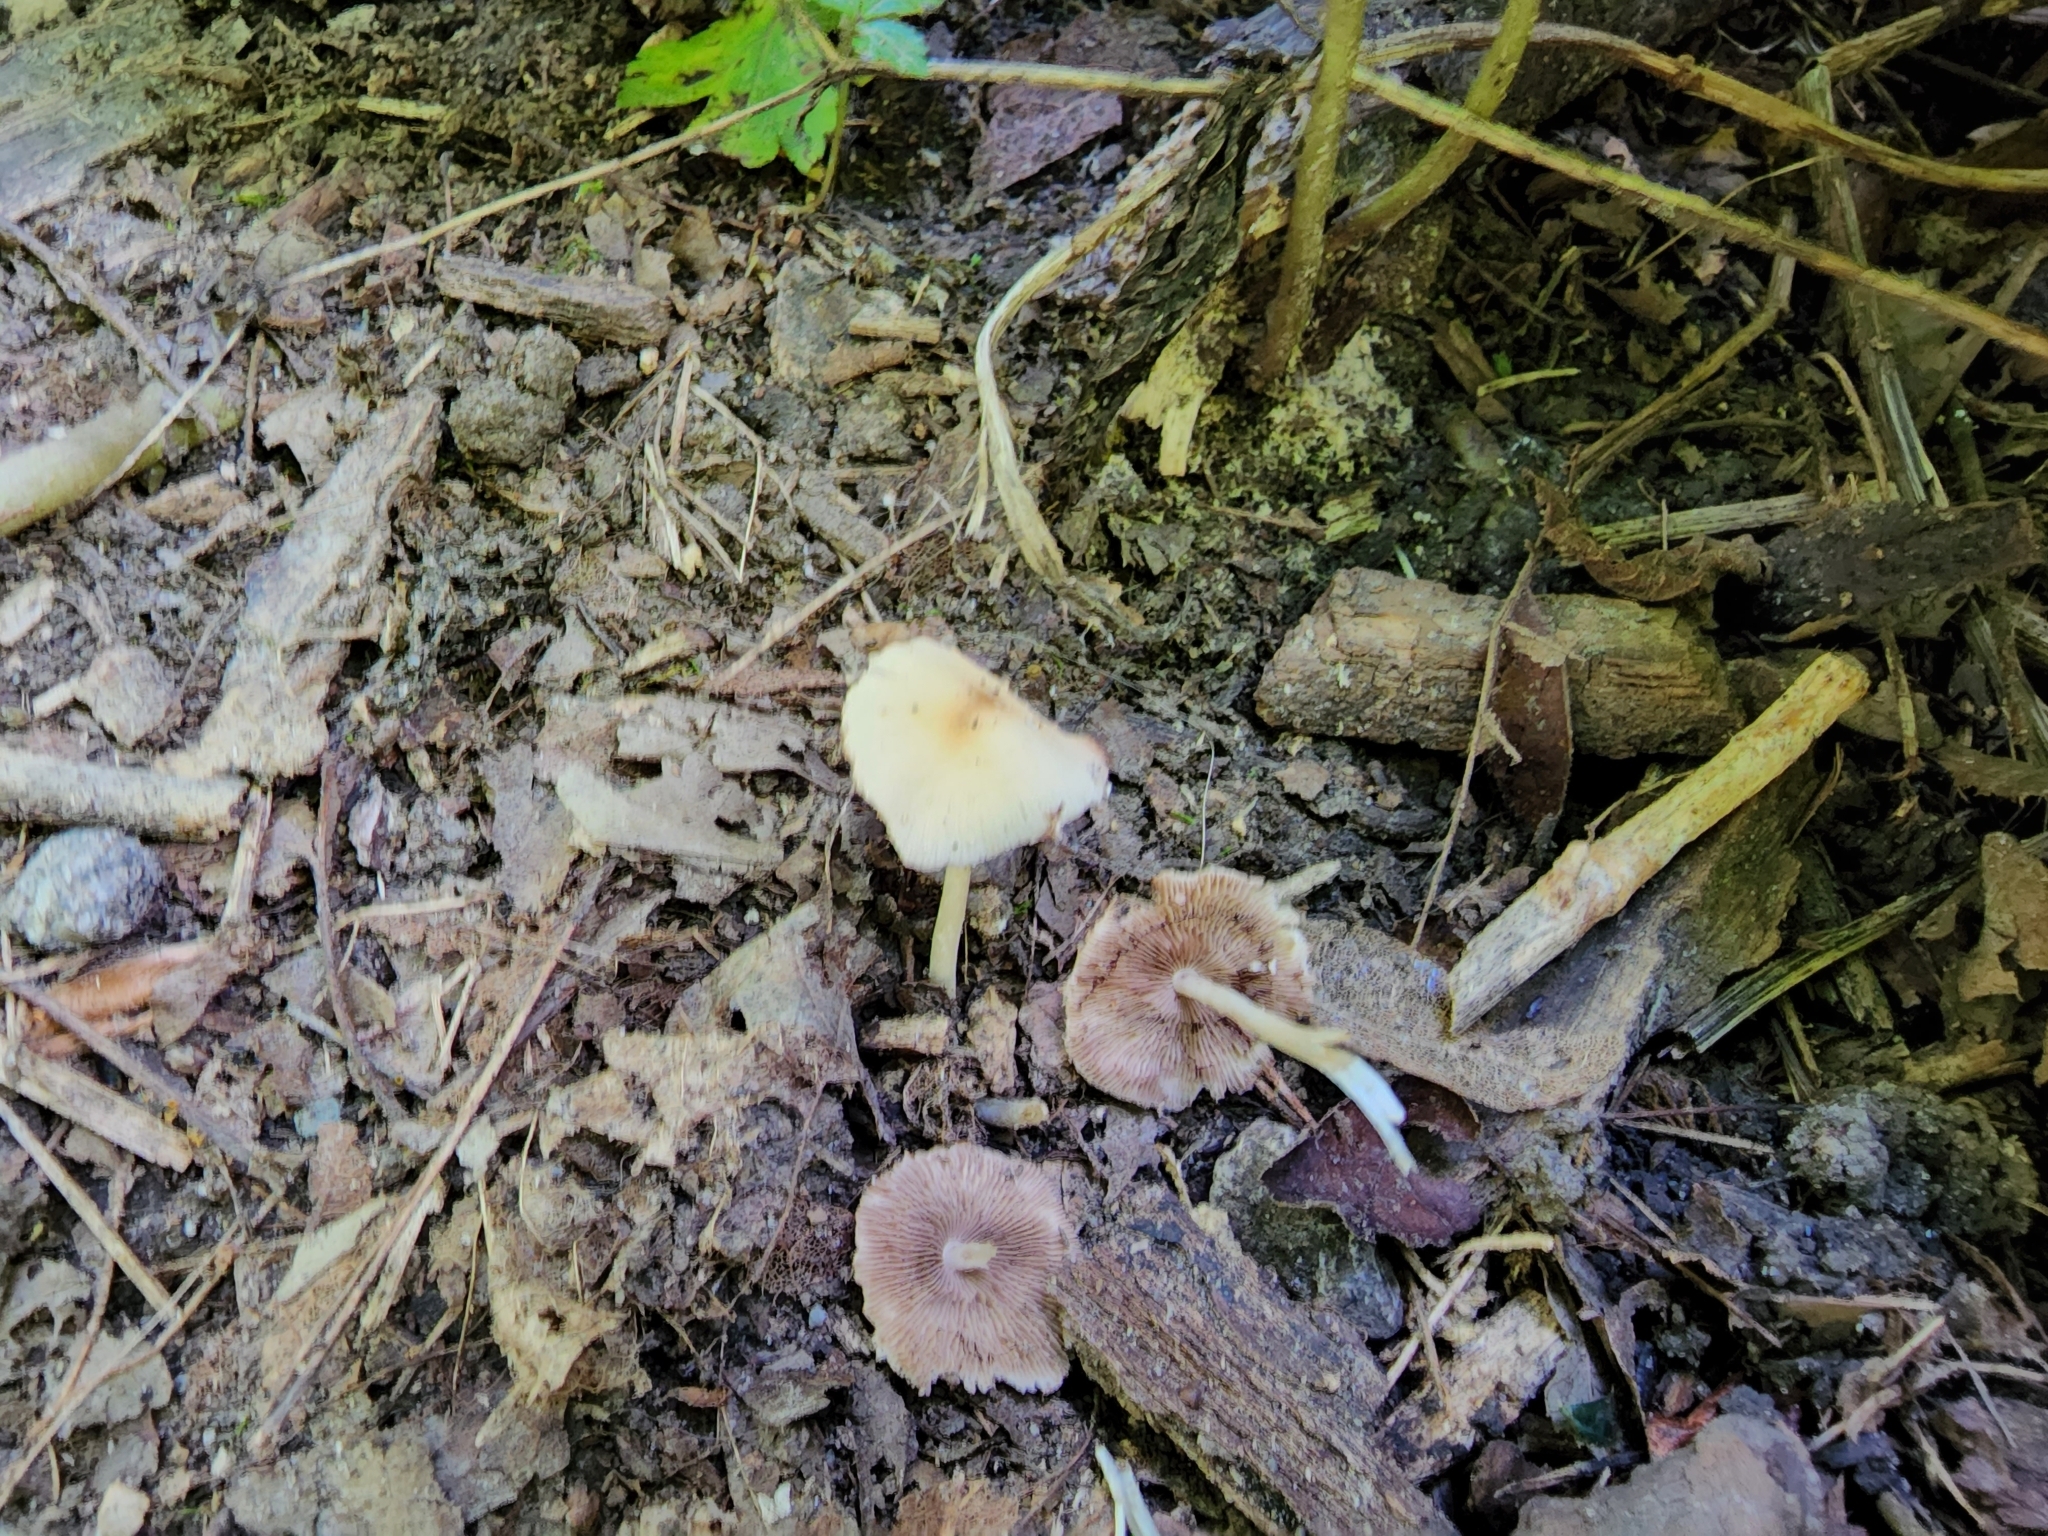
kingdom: Fungi
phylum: Basidiomycota
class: Agaricomycetes
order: Agaricales
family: Psathyrellaceae
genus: Candolleomyces
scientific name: Candolleomyces candolleanus
